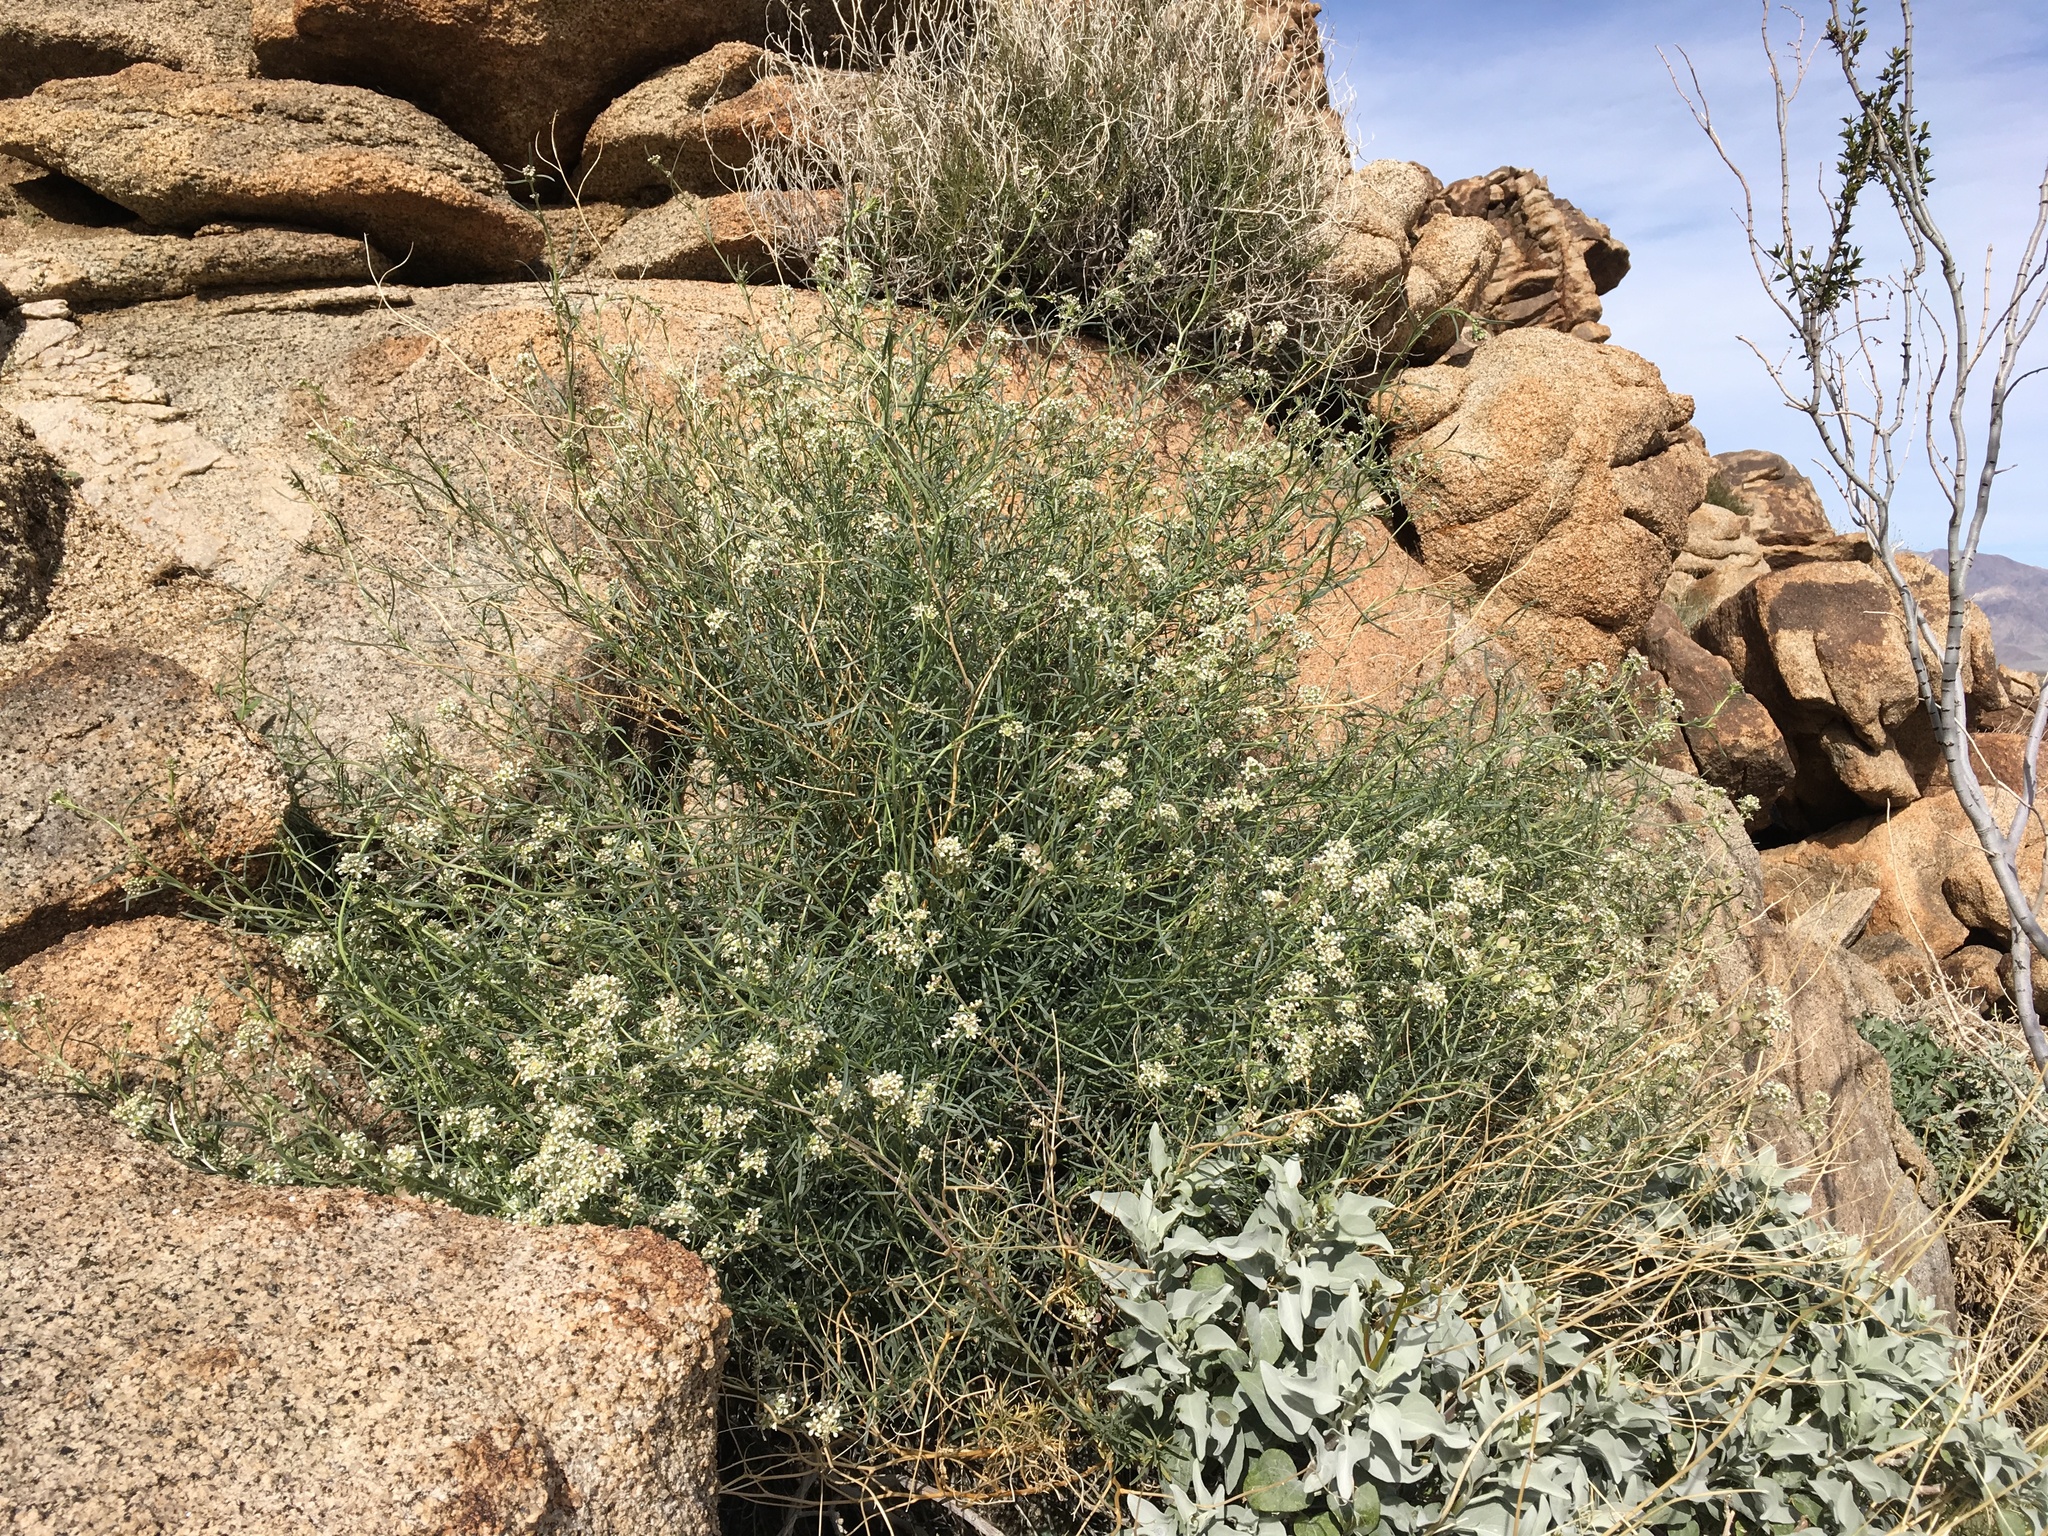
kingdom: Plantae
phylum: Tracheophyta
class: Magnoliopsida
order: Brassicales
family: Brassicaceae
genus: Lepidium
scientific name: Lepidium fremontii
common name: Fremont's pepperwort
